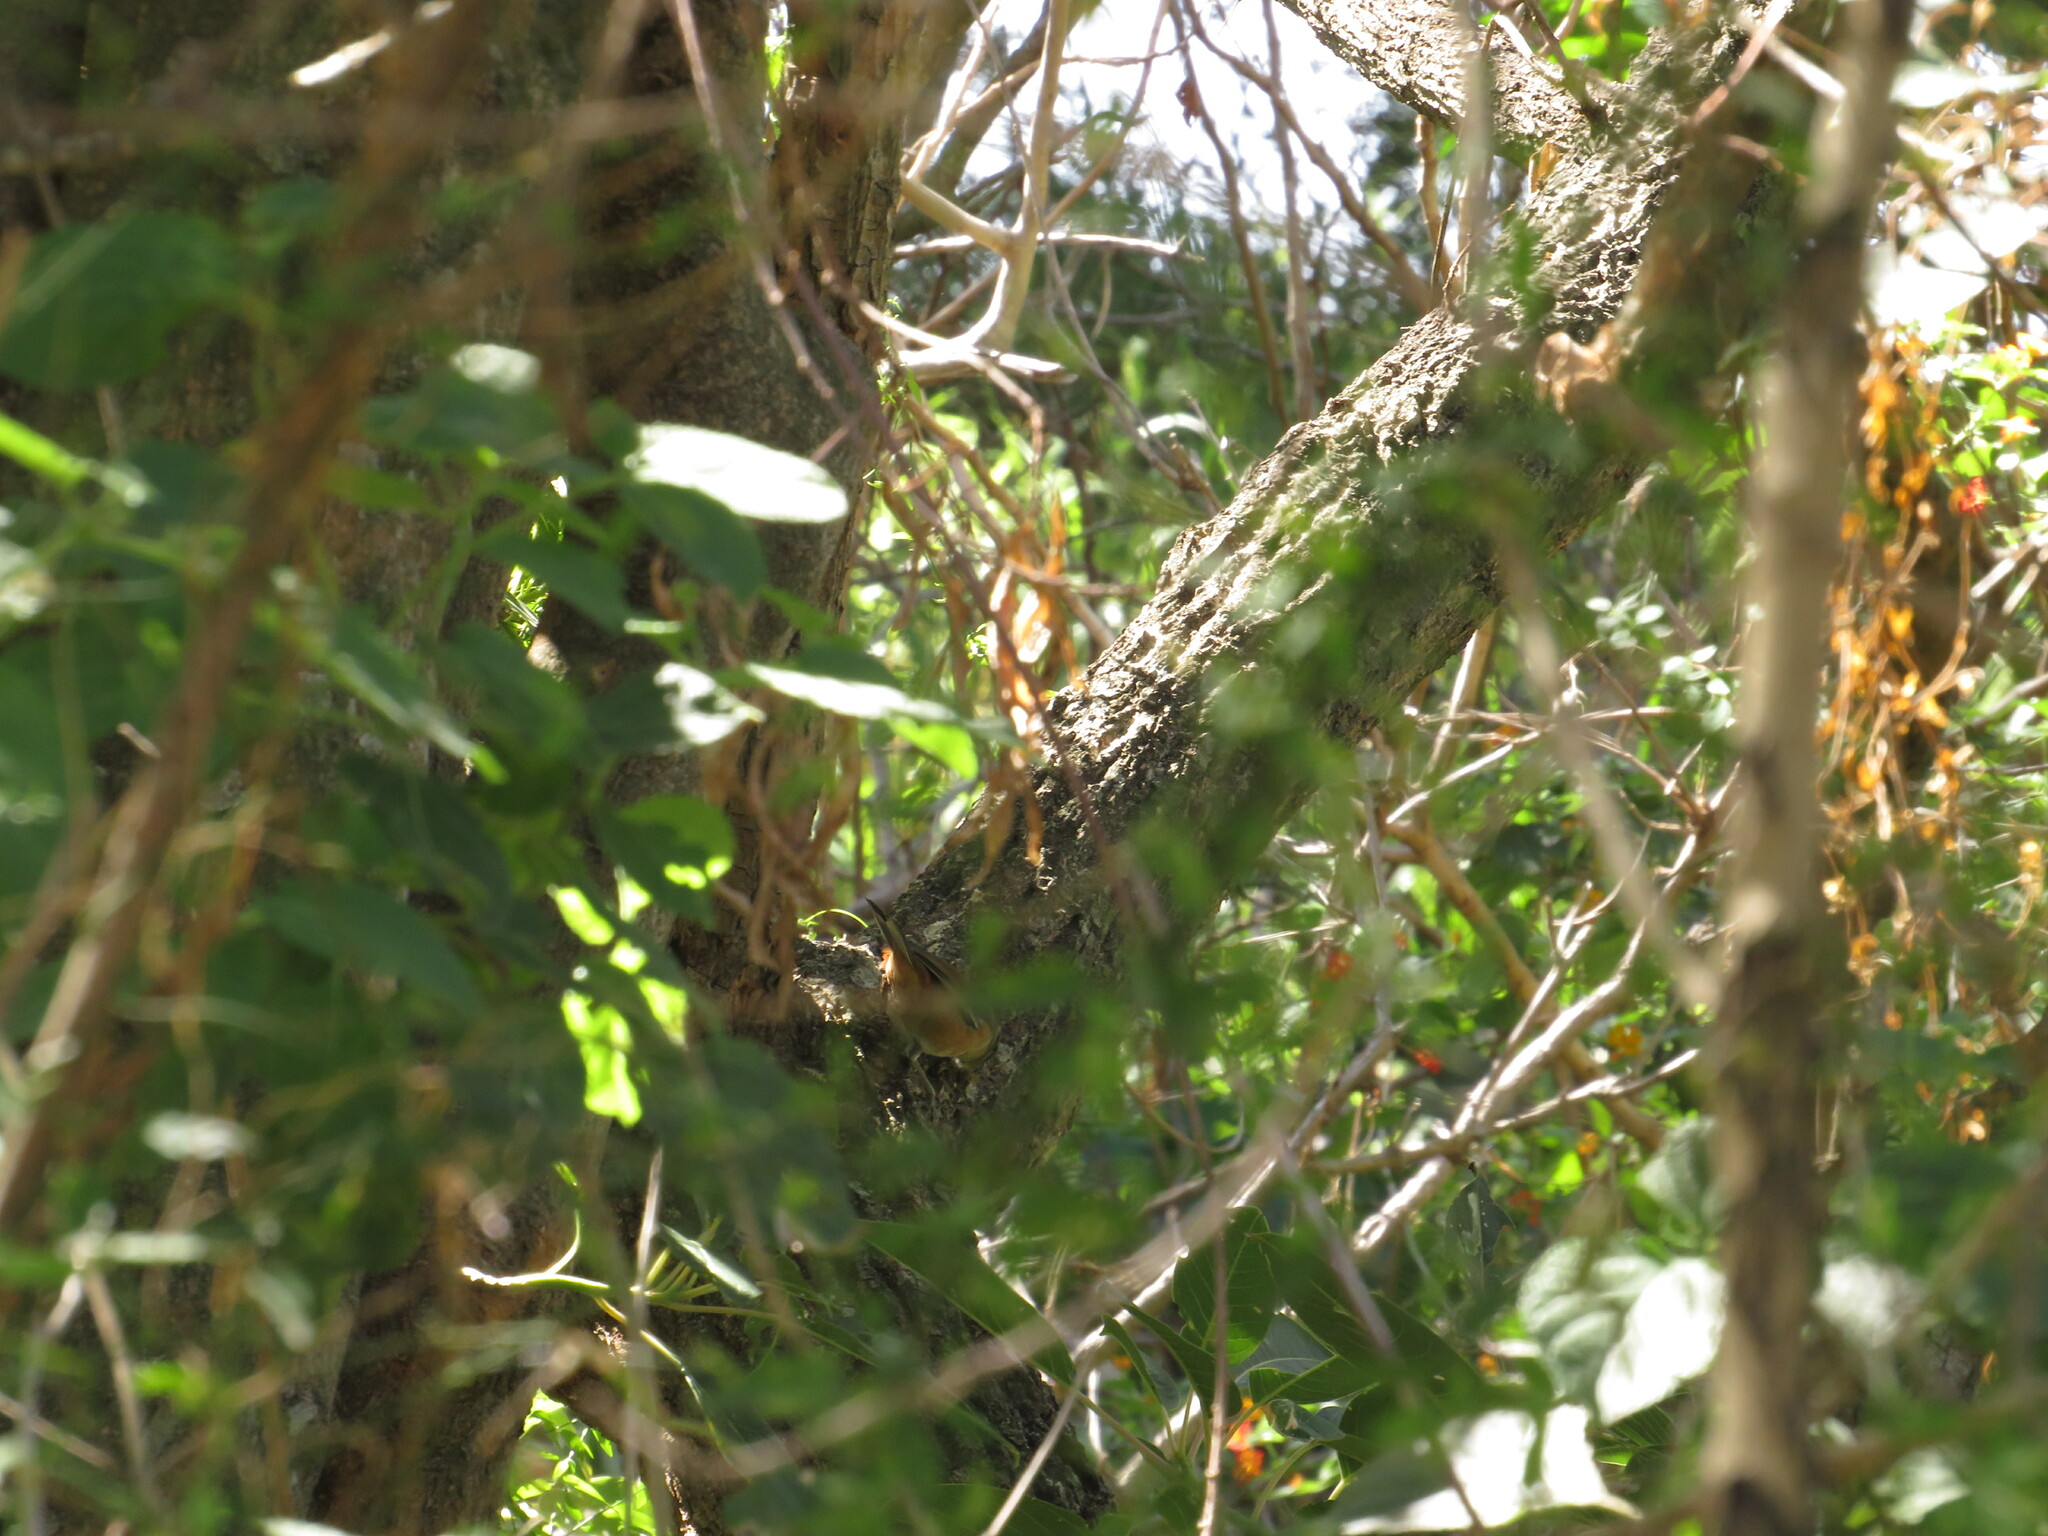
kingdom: Animalia
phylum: Chordata
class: Aves
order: Passeriformes
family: Thraupidae
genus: Microspingus
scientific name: Microspingus cabanisi
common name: Gray-throated warbling-finch
